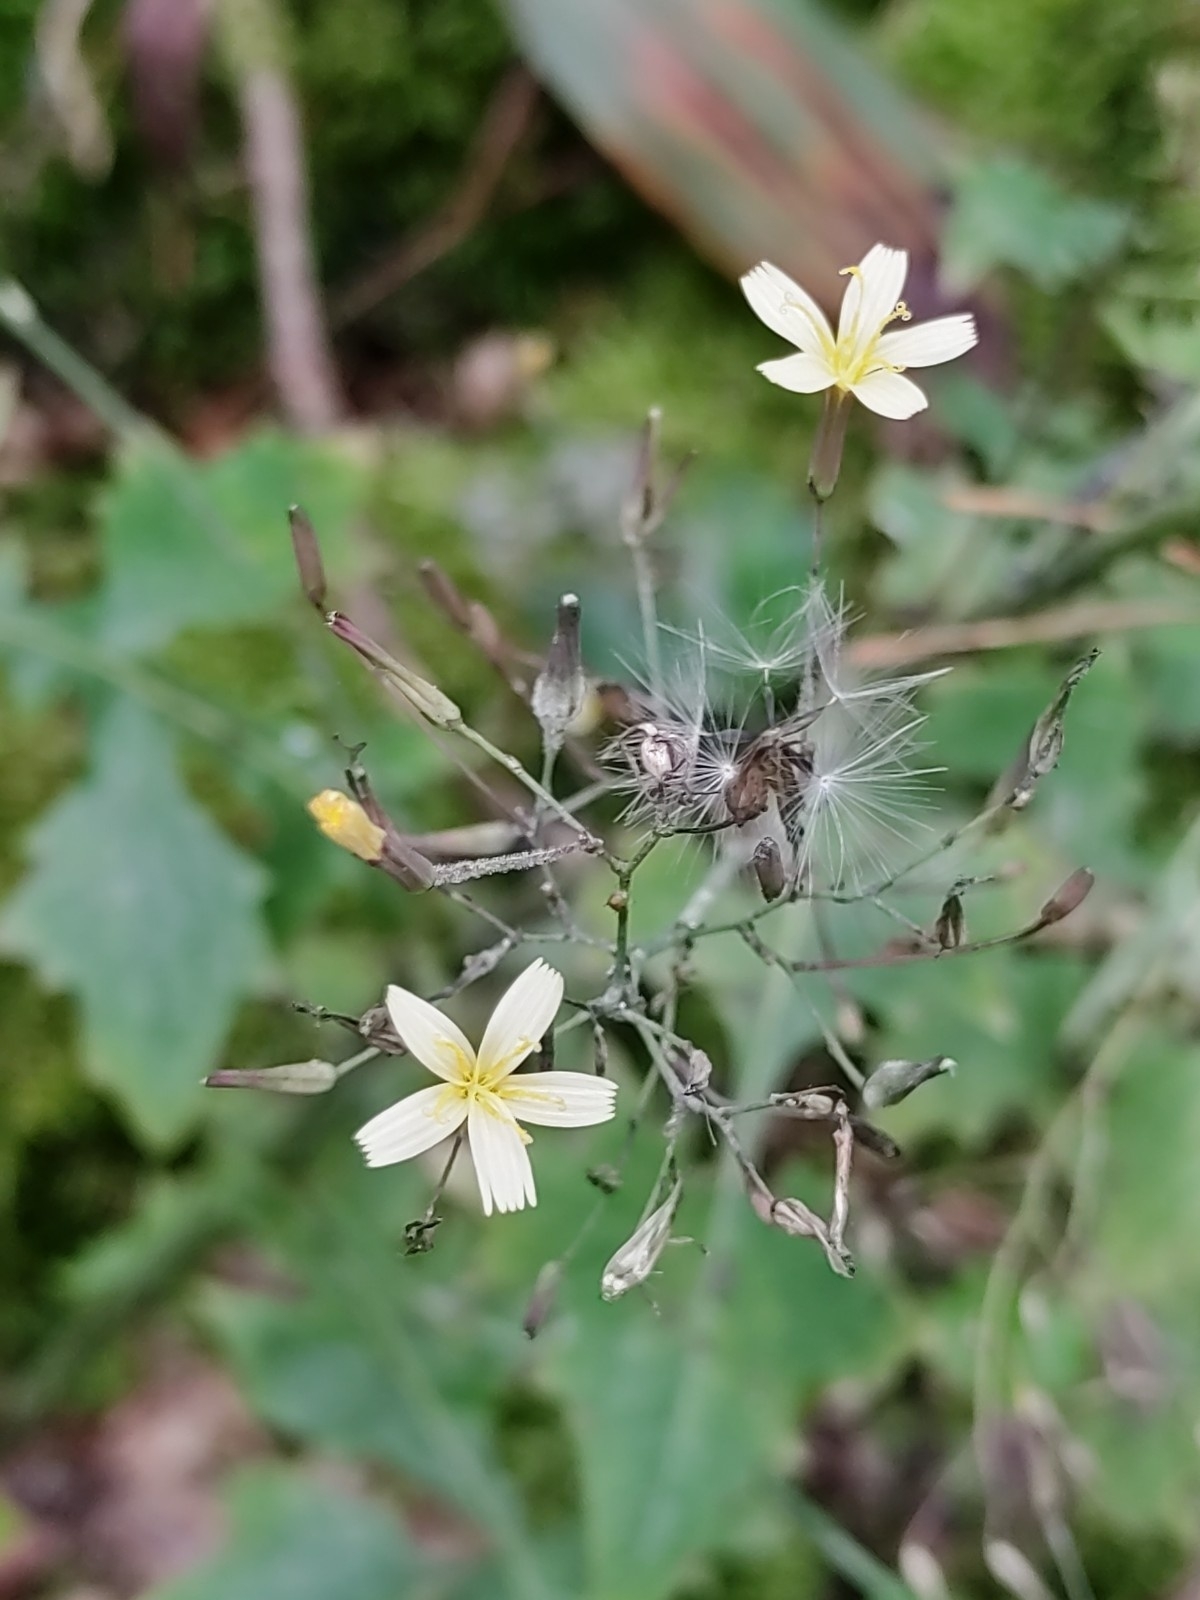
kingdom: Plantae
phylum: Tracheophyta
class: Magnoliopsida
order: Asterales
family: Asteraceae
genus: Mycelis
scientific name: Mycelis muralis
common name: Wall lettuce
